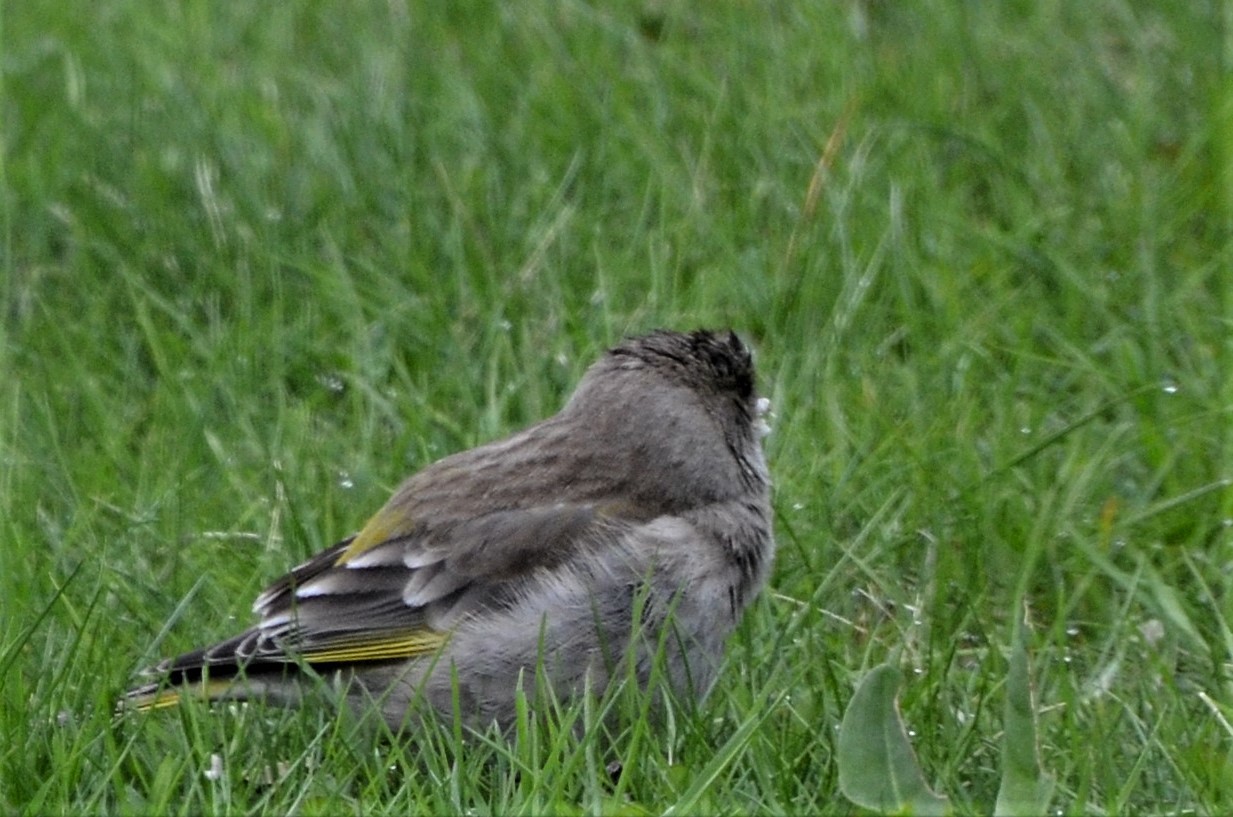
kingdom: Plantae
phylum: Tracheophyta
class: Liliopsida
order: Poales
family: Poaceae
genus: Chloris
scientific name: Chloris chloris
